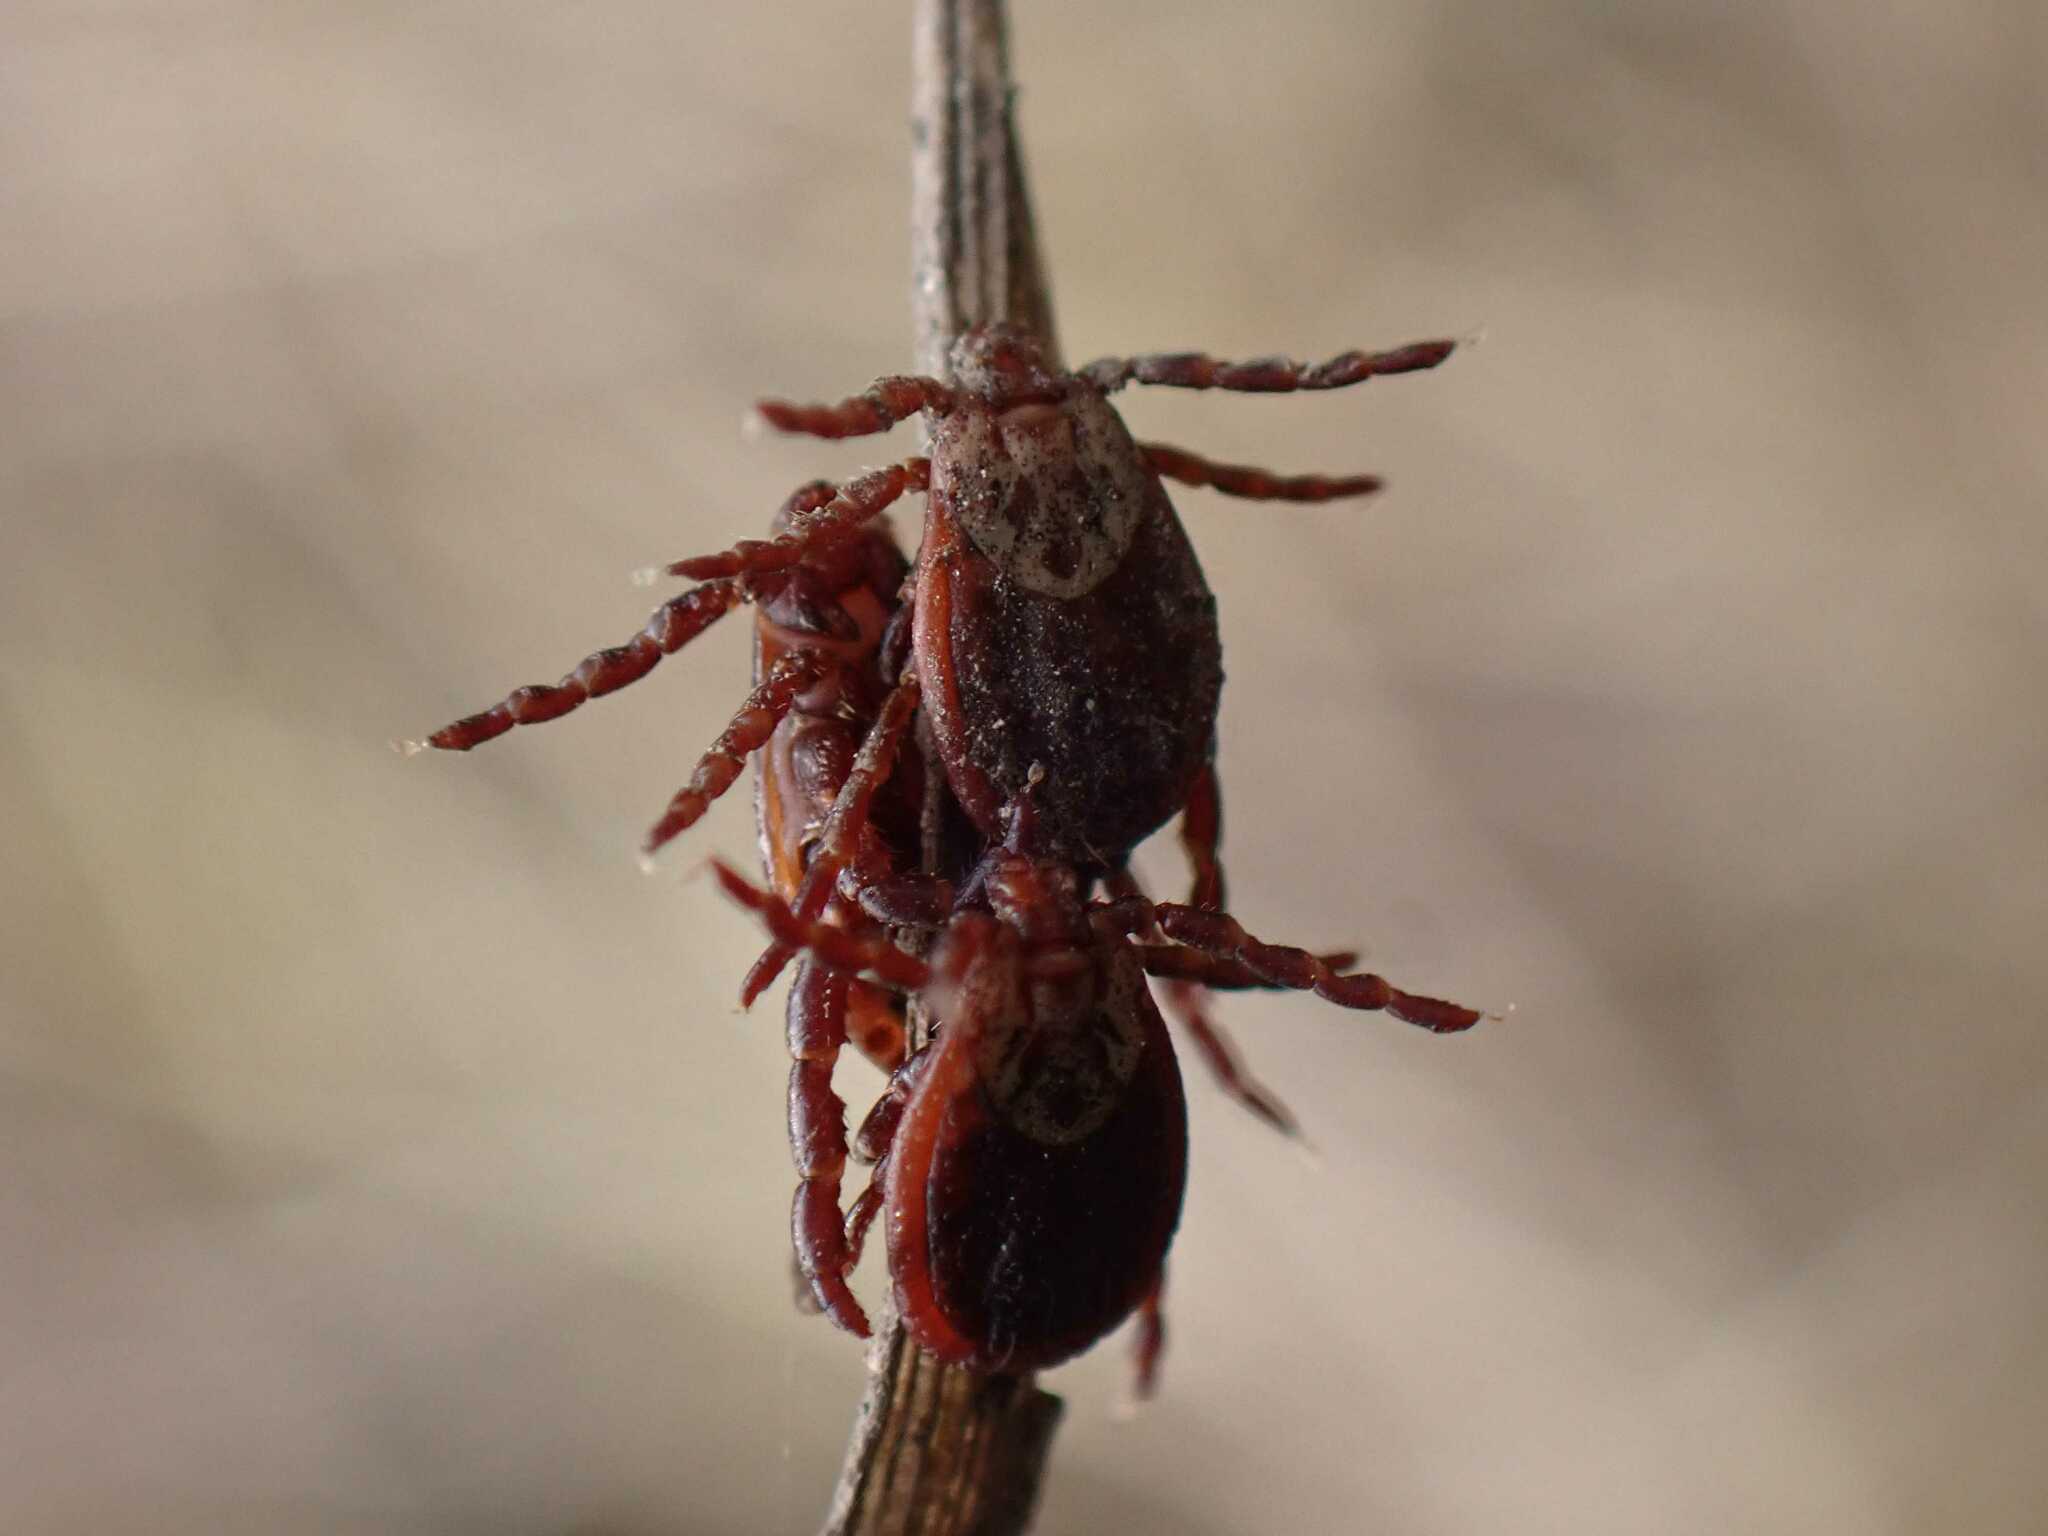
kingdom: Animalia
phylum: Arthropoda
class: Arachnida
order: Ixodida
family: Ixodidae
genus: Dermacentor
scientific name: Dermacentor reticulatus
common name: Ornate cow tick
